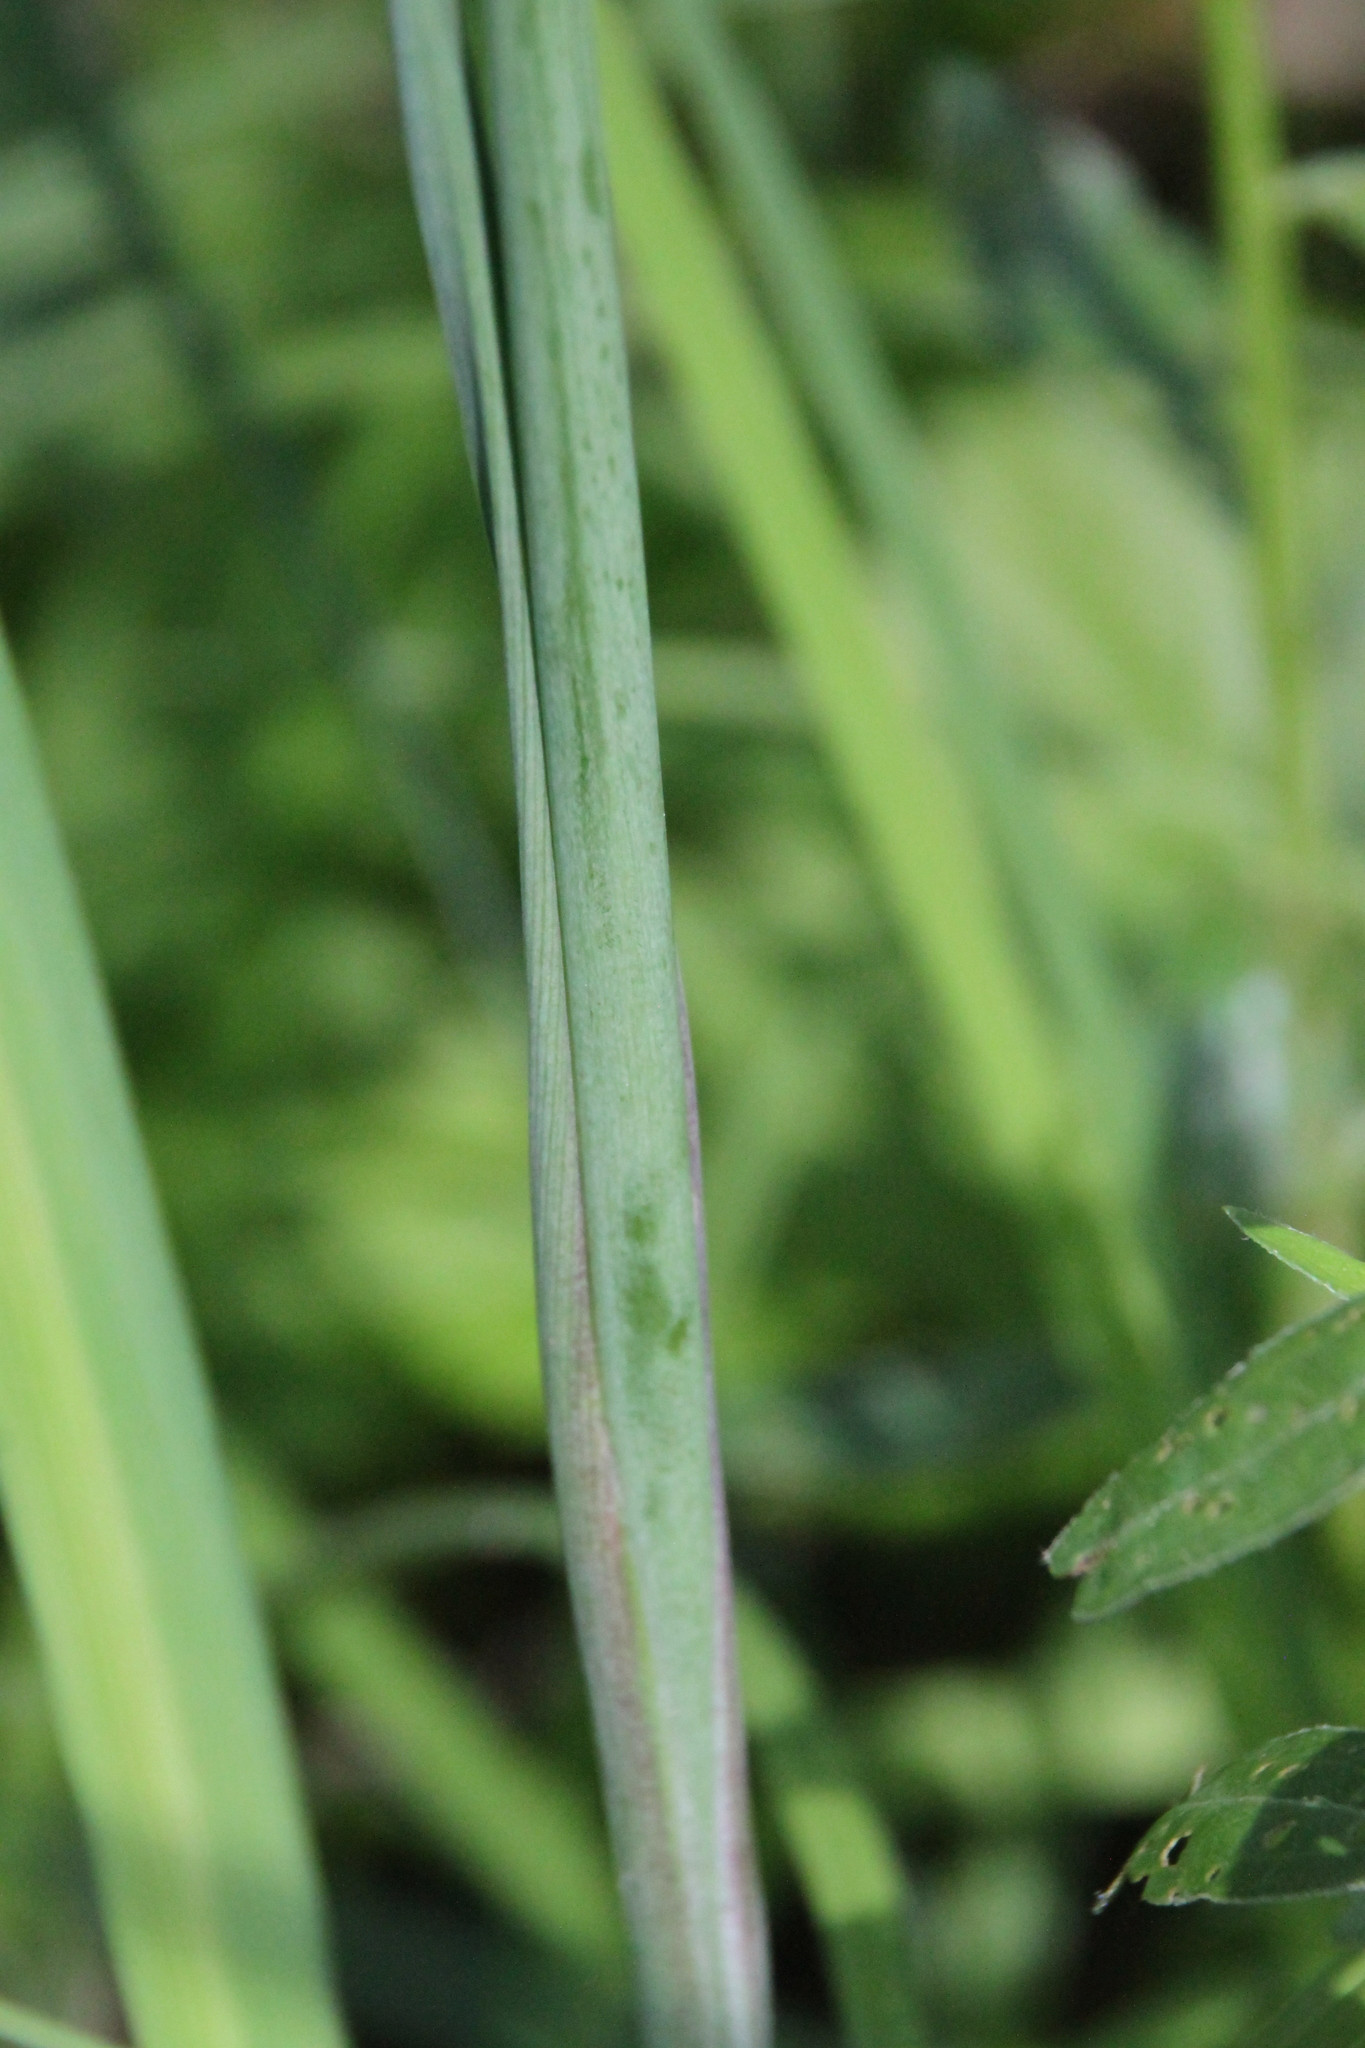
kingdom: Plantae
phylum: Tracheophyta
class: Liliopsida
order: Asparagales
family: Iridaceae
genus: Iris
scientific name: Iris sibirica
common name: Siberian iris
